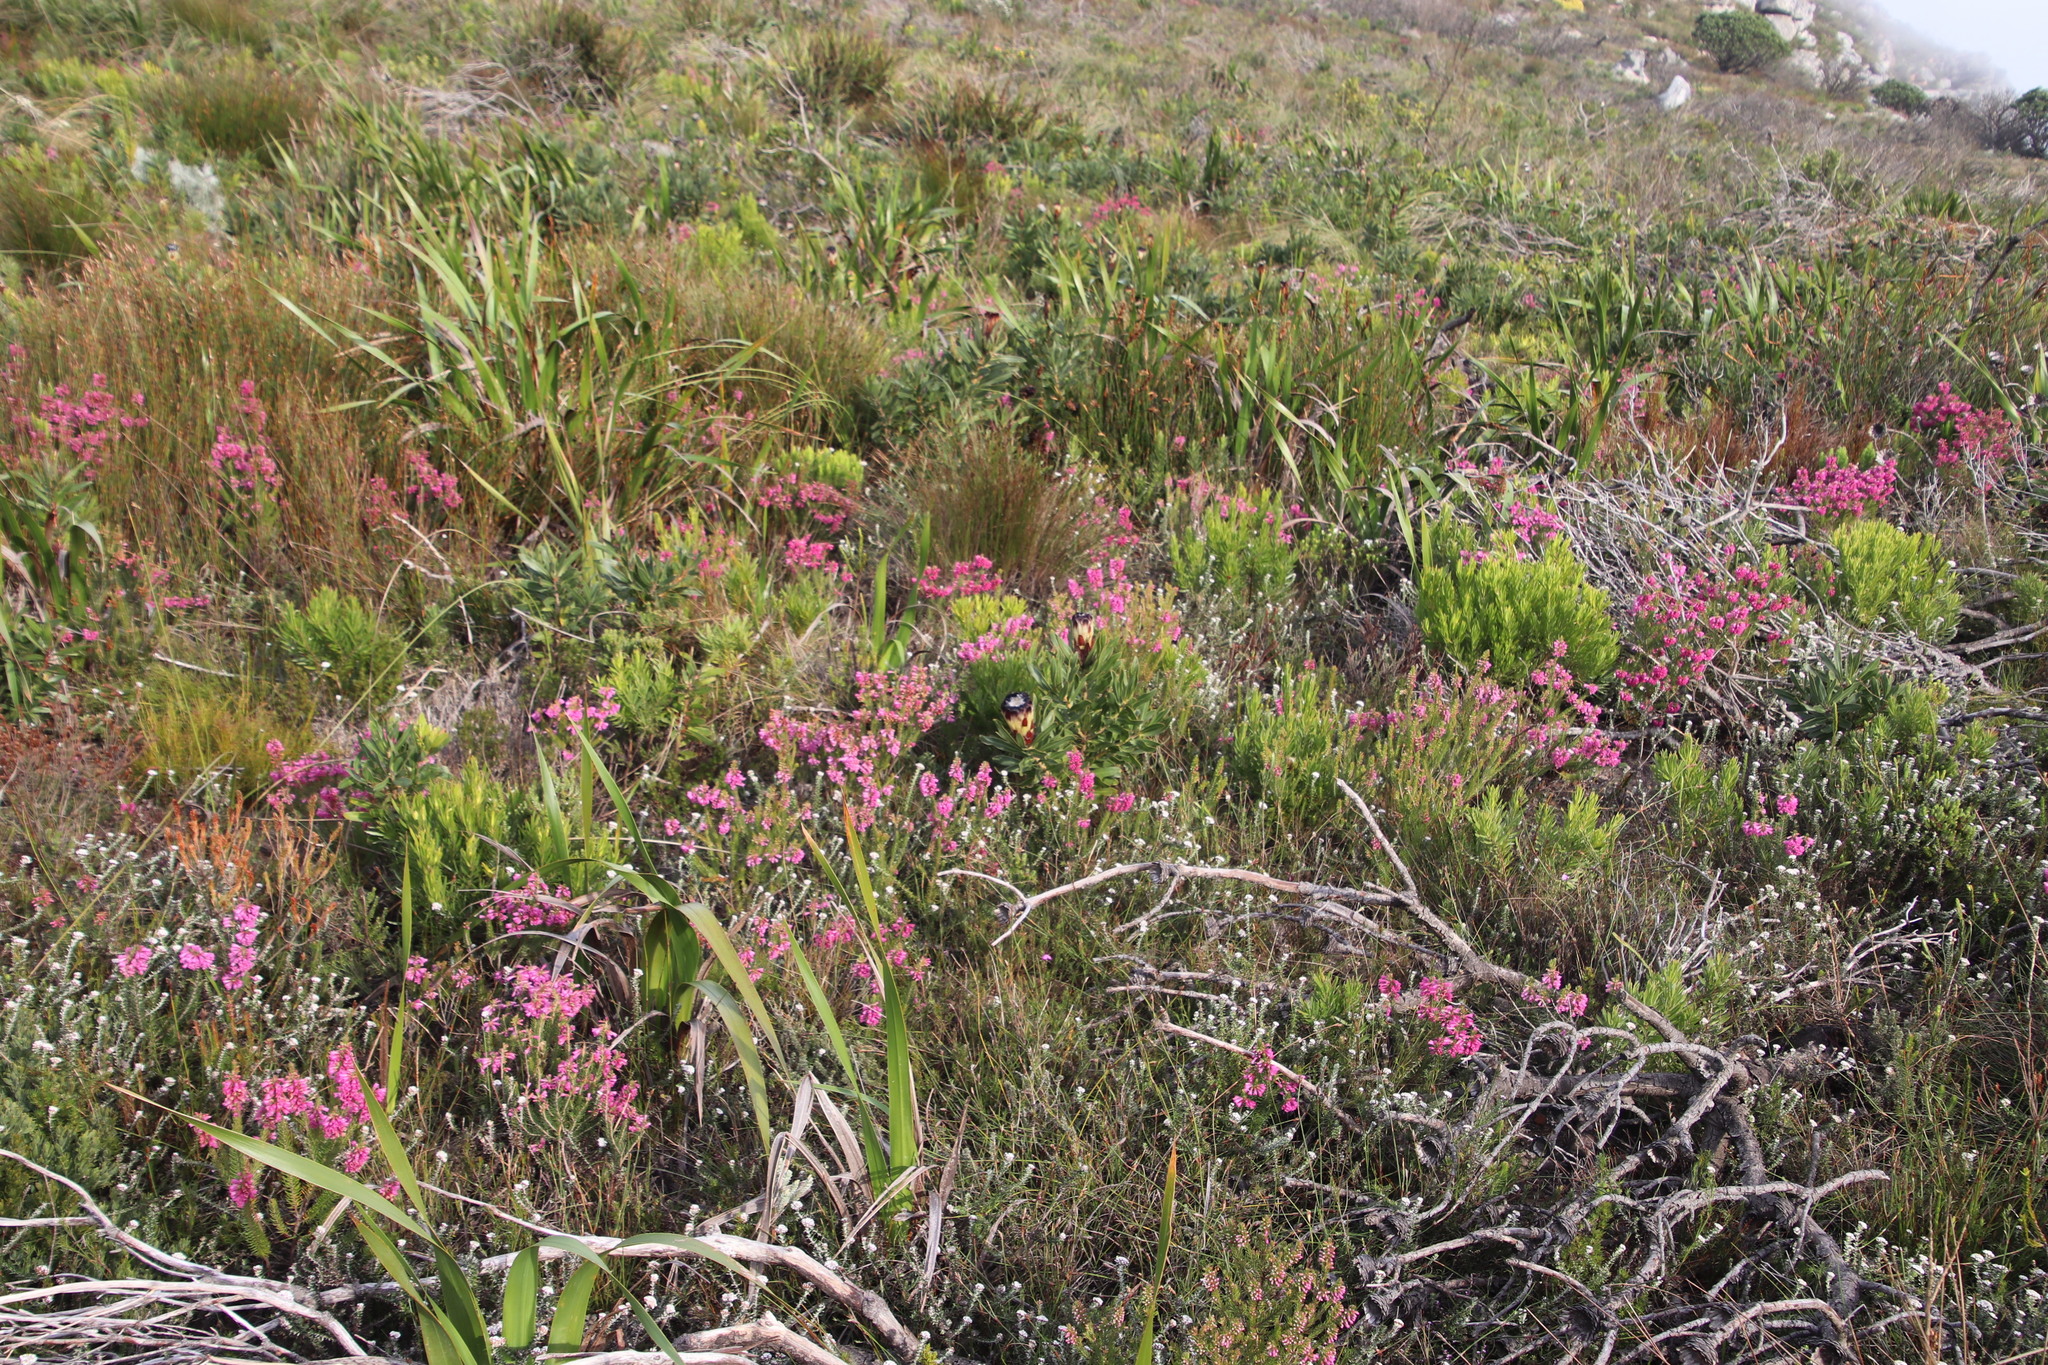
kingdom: Plantae
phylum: Tracheophyta
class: Magnoliopsida
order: Ericales
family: Ericaceae
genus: Erica
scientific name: Erica abietina
